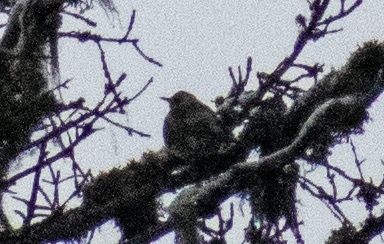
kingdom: Animalia
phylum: Chordata
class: Aves
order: Passeriformes
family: Turdidae
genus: Turdus
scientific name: Turdus pilaris
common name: Fieldfare
